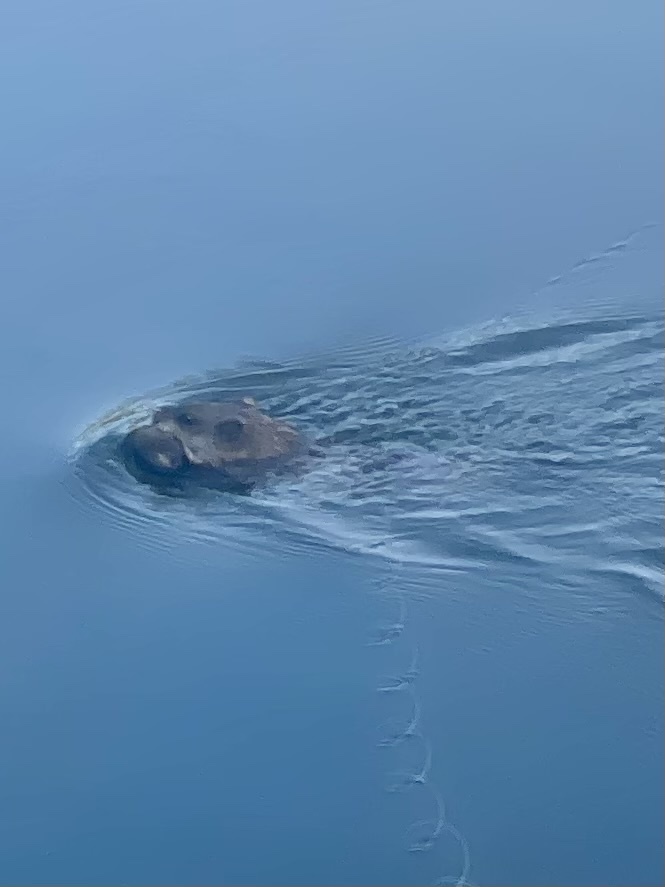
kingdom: Animalia
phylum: Chordata
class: Mammalia
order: Rodentia
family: Cricetidae
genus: Ondatra
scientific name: Ondatra zibethicus
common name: Muskrat
